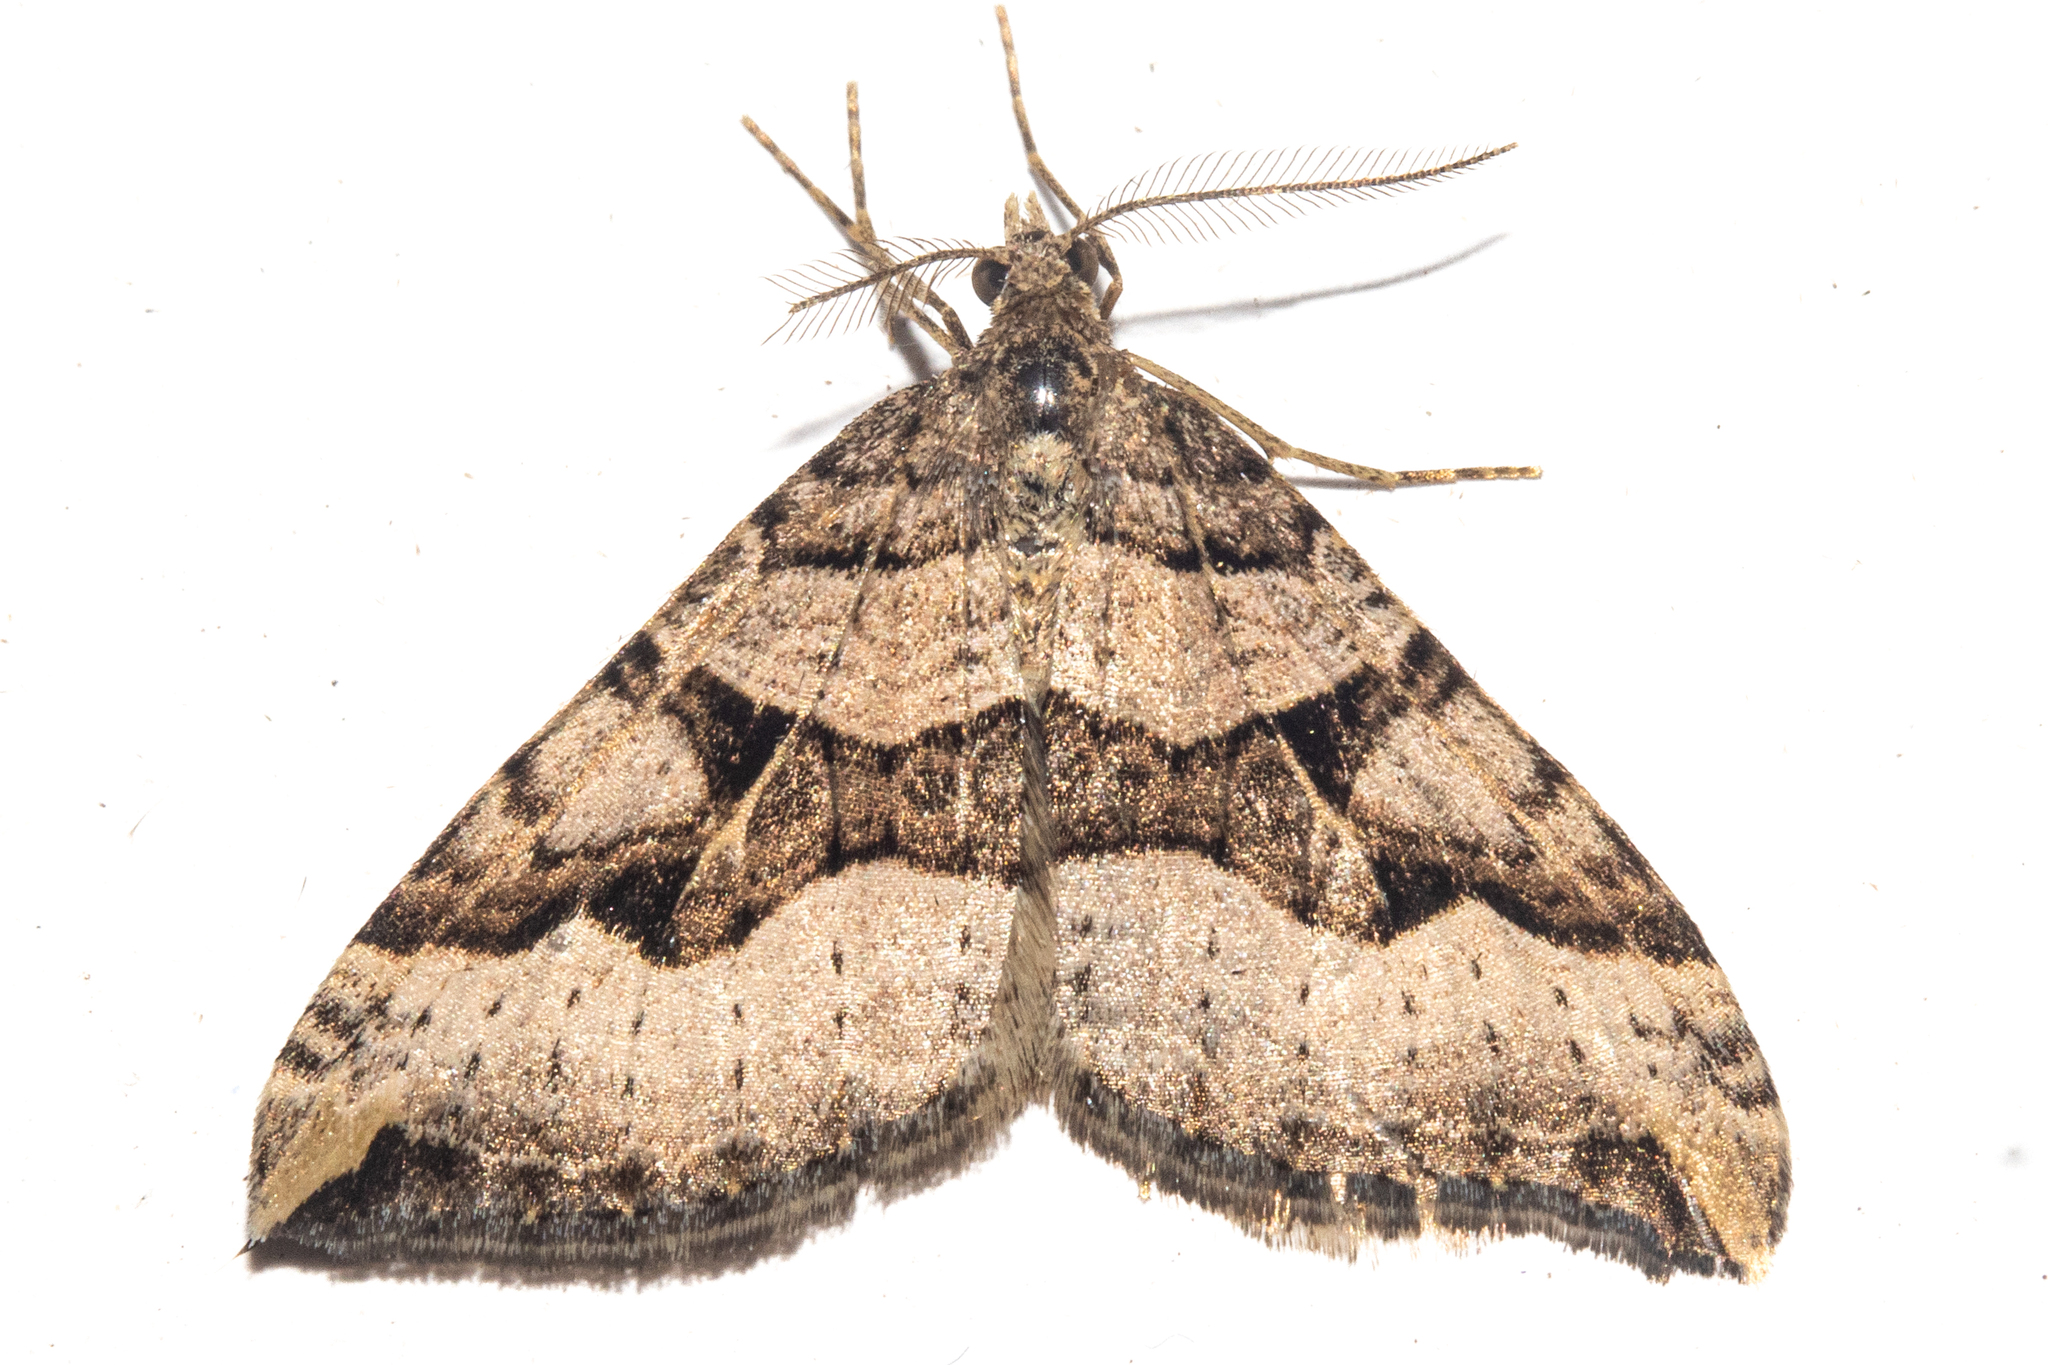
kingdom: Animalia
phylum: Arthropoda
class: Insecta
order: Lepidoptera
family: Geometridae
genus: Xanthorhoe
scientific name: Xanthorhoe semifissata
